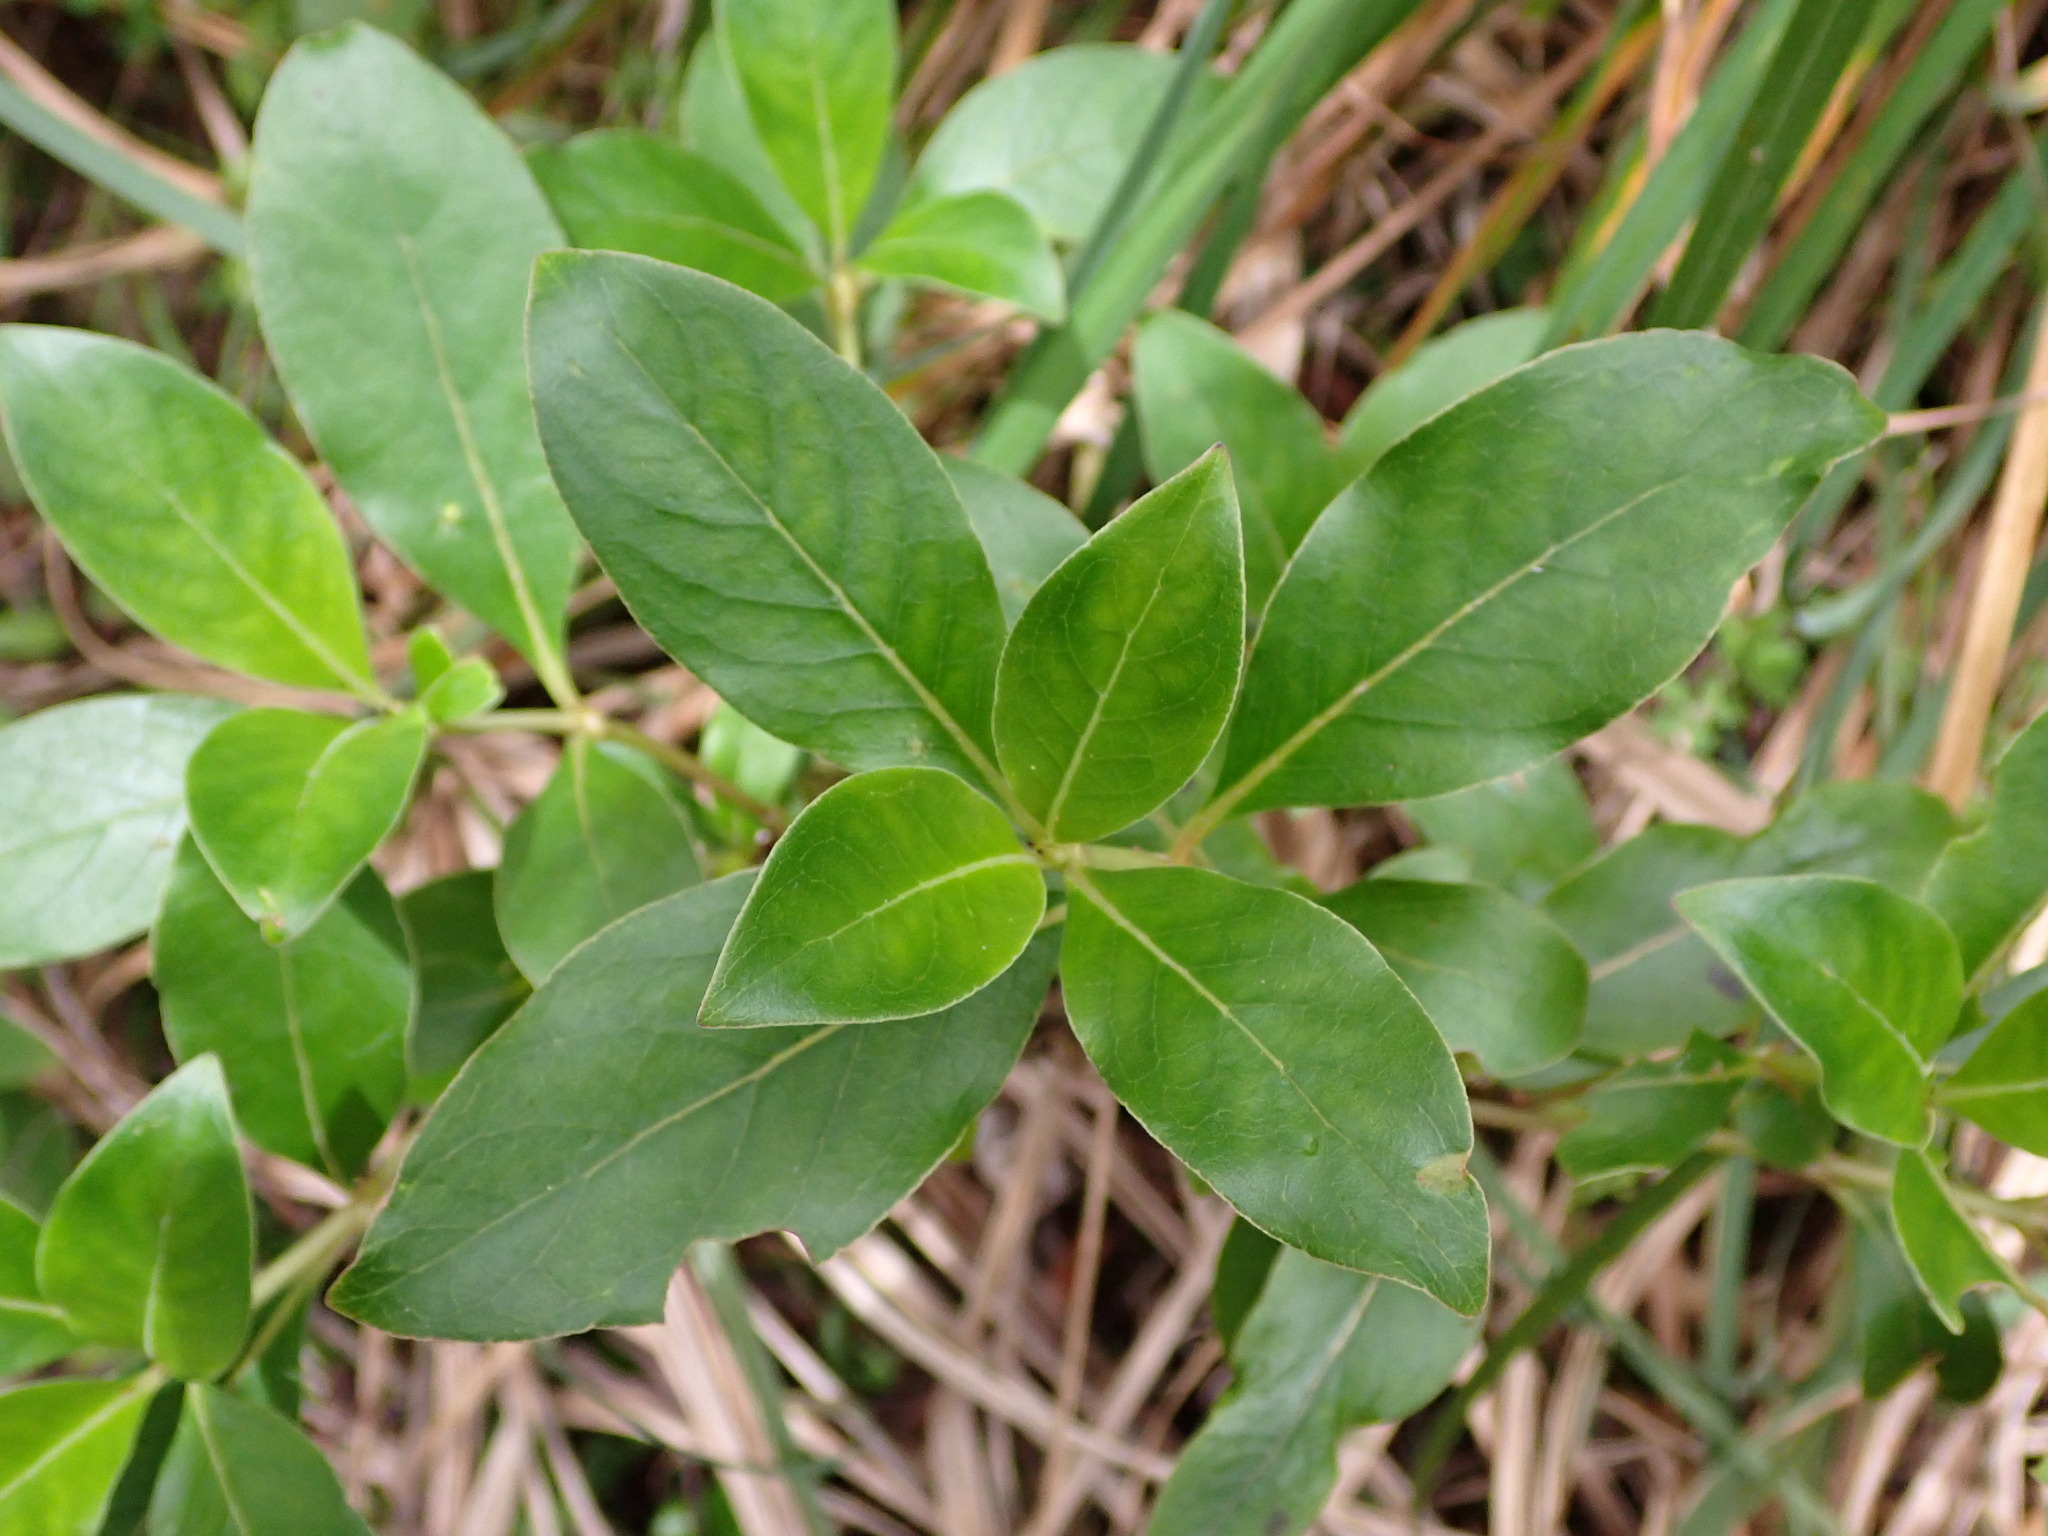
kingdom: Plantae
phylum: Tracheophyta
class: Magnoliopsida
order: Gentianales
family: Rubiaceae
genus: Coprosma
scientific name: Coprosma robusta
